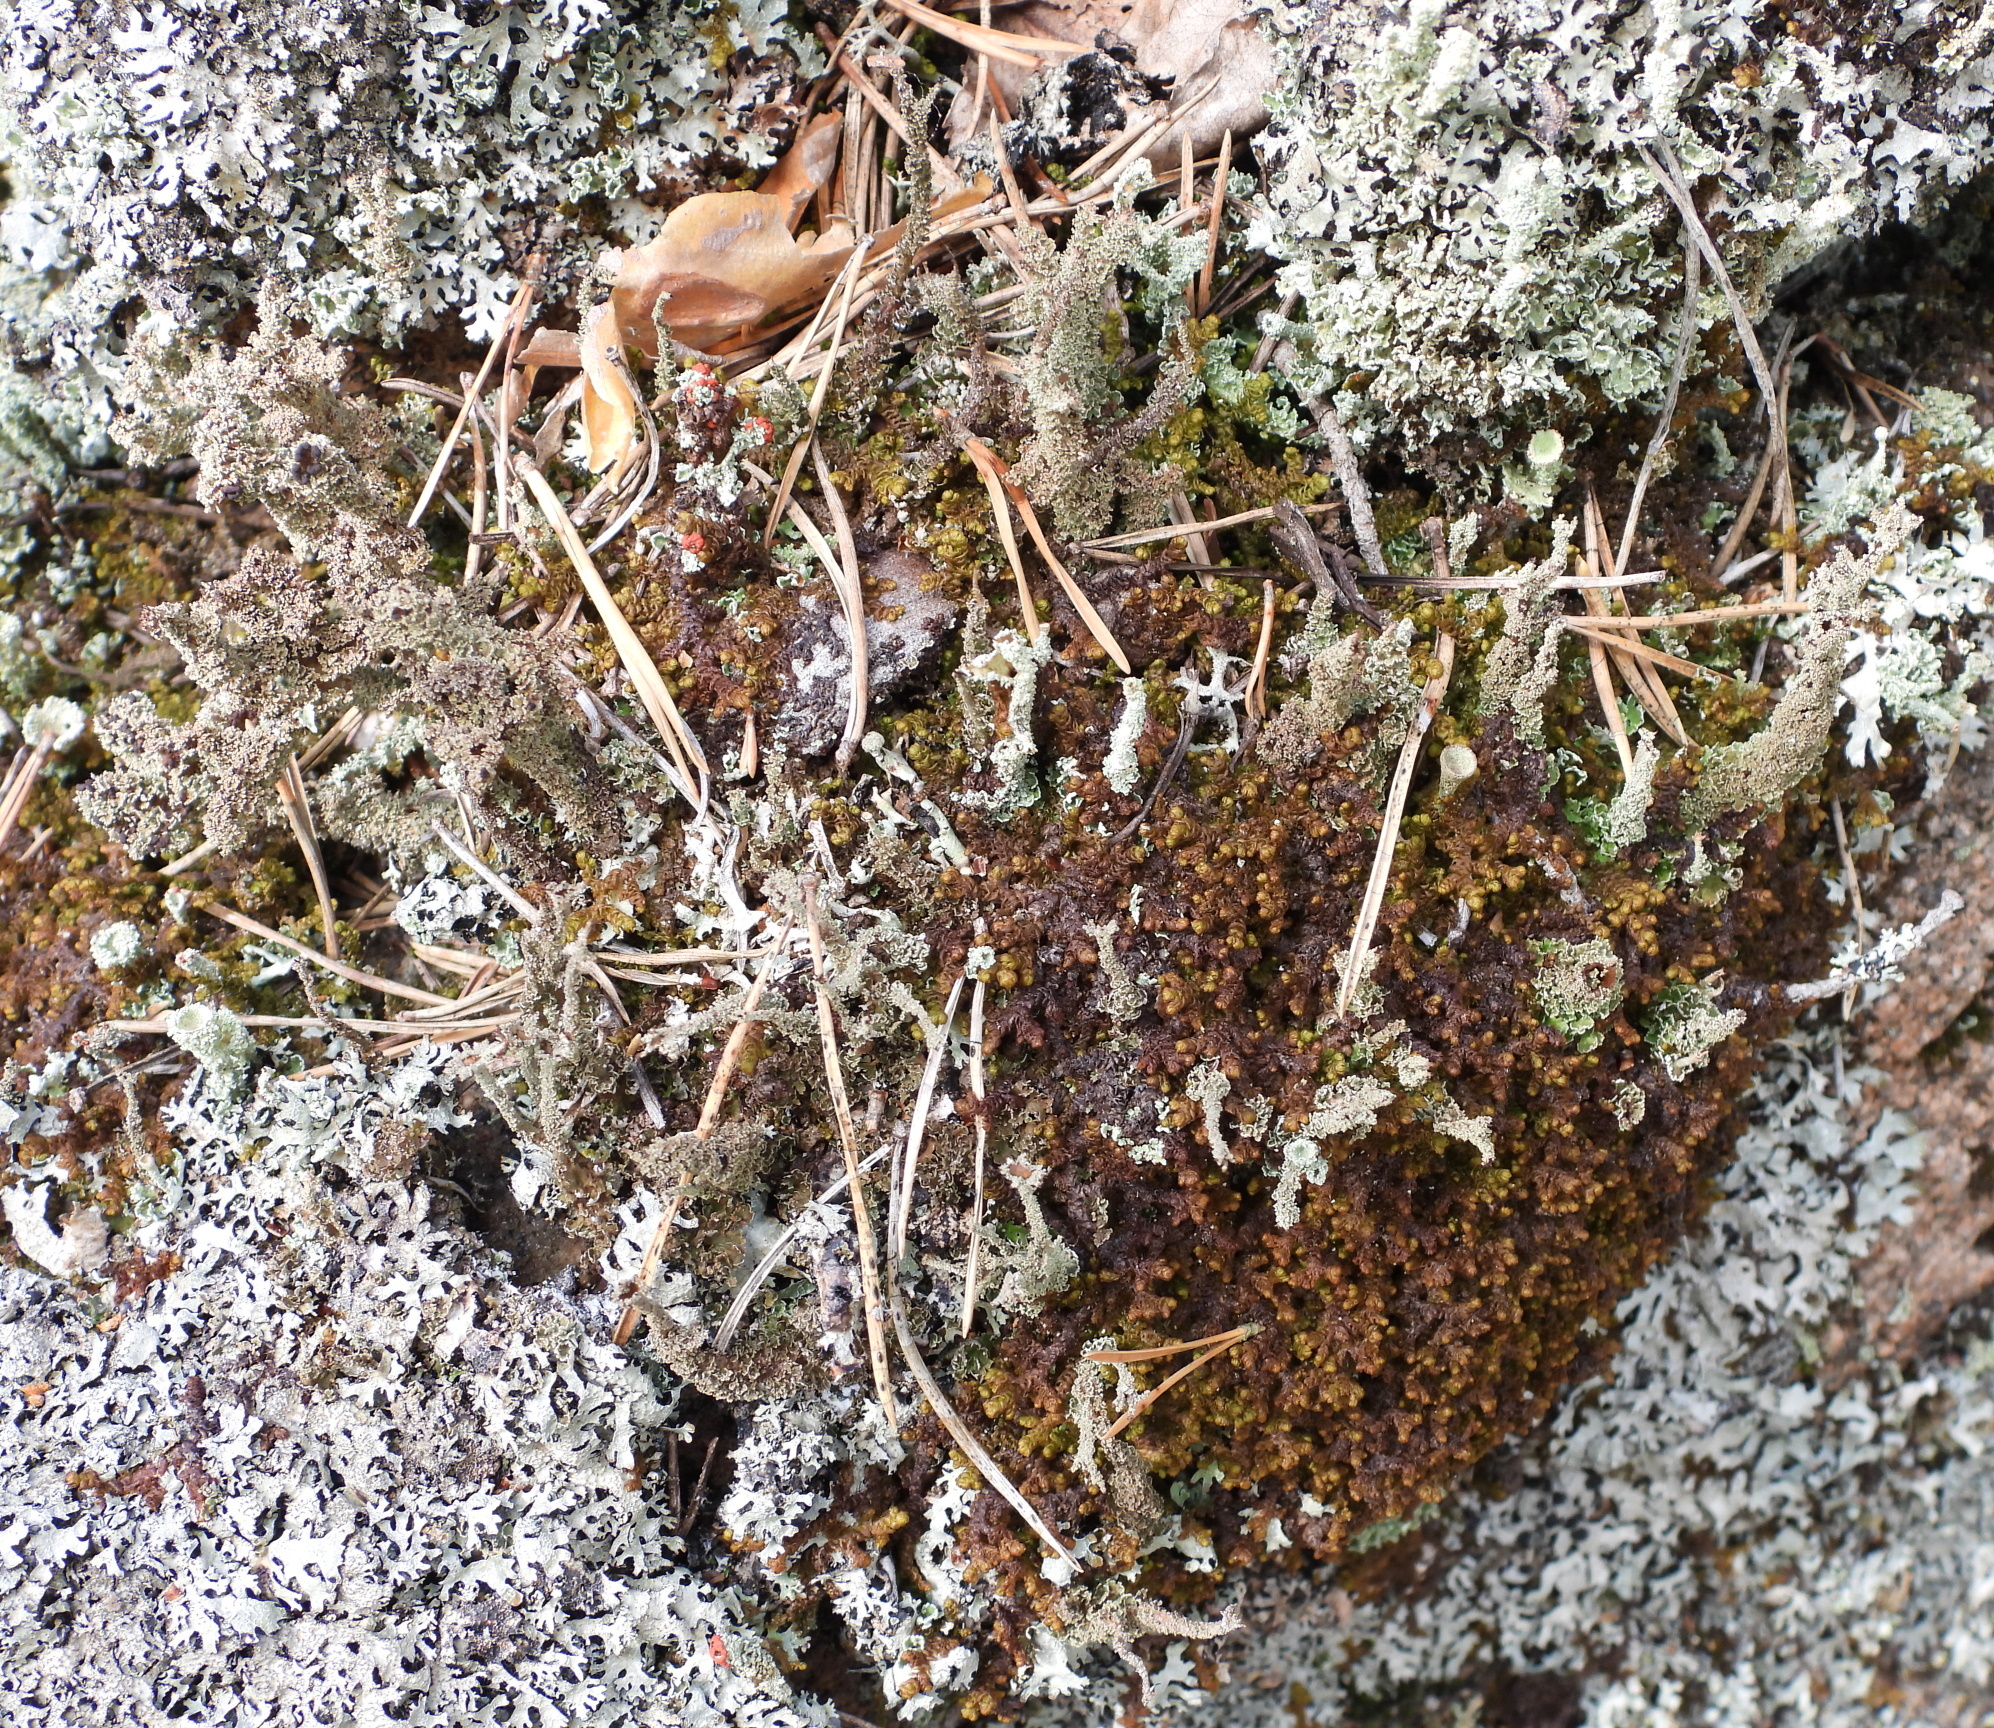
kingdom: Fungi
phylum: Ascomycota
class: Lecanoromycetes
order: Lecanorales
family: Cladoniaceae
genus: Cladonia
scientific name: Cladonia squamosa
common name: Dragon horn
